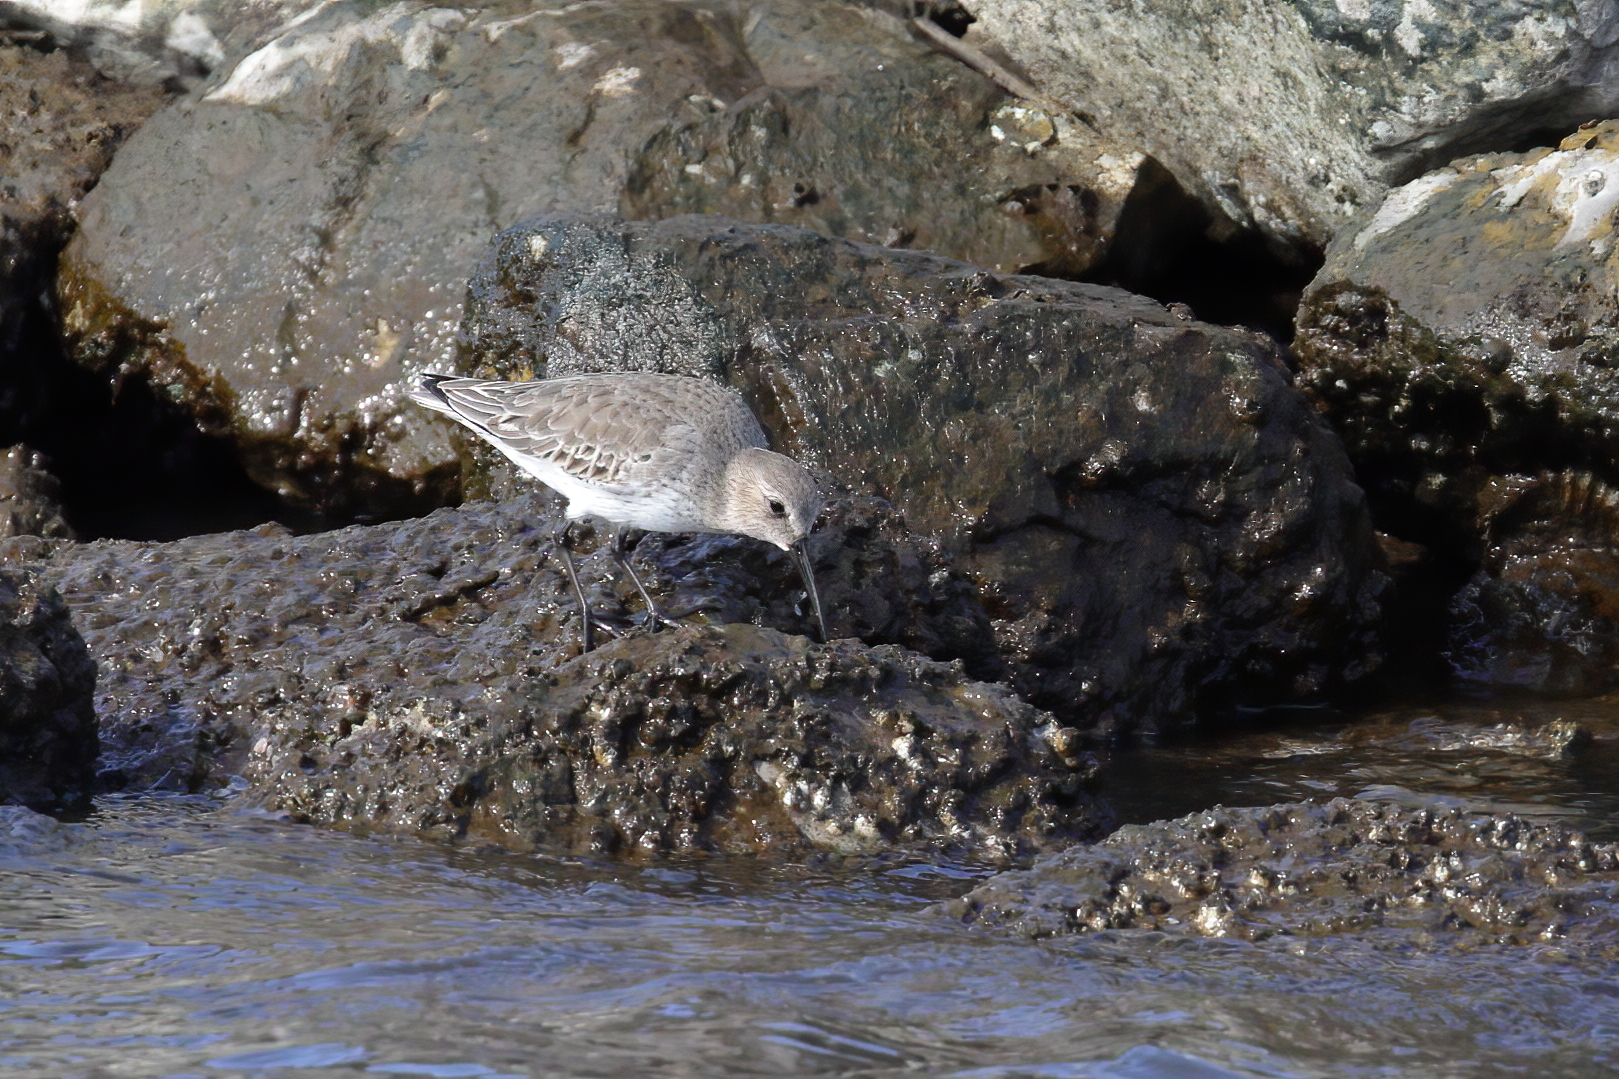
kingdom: Animalia
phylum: Chordata
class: Aves
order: Charadriiformes
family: Scolopacidae
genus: Calidris
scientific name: Calidris alpina
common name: Dunlin
